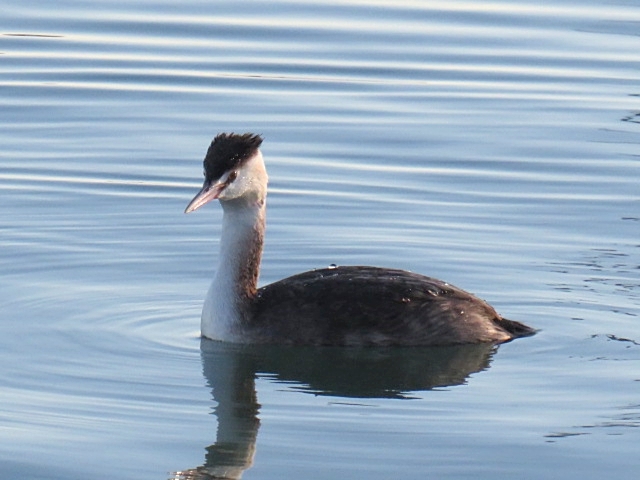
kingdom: Animalia
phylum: Chordata
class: Aves
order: Podicipediformes
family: Podicipedidae
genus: Podiceps
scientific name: Podiceps cristatus
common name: Great crested grebe
